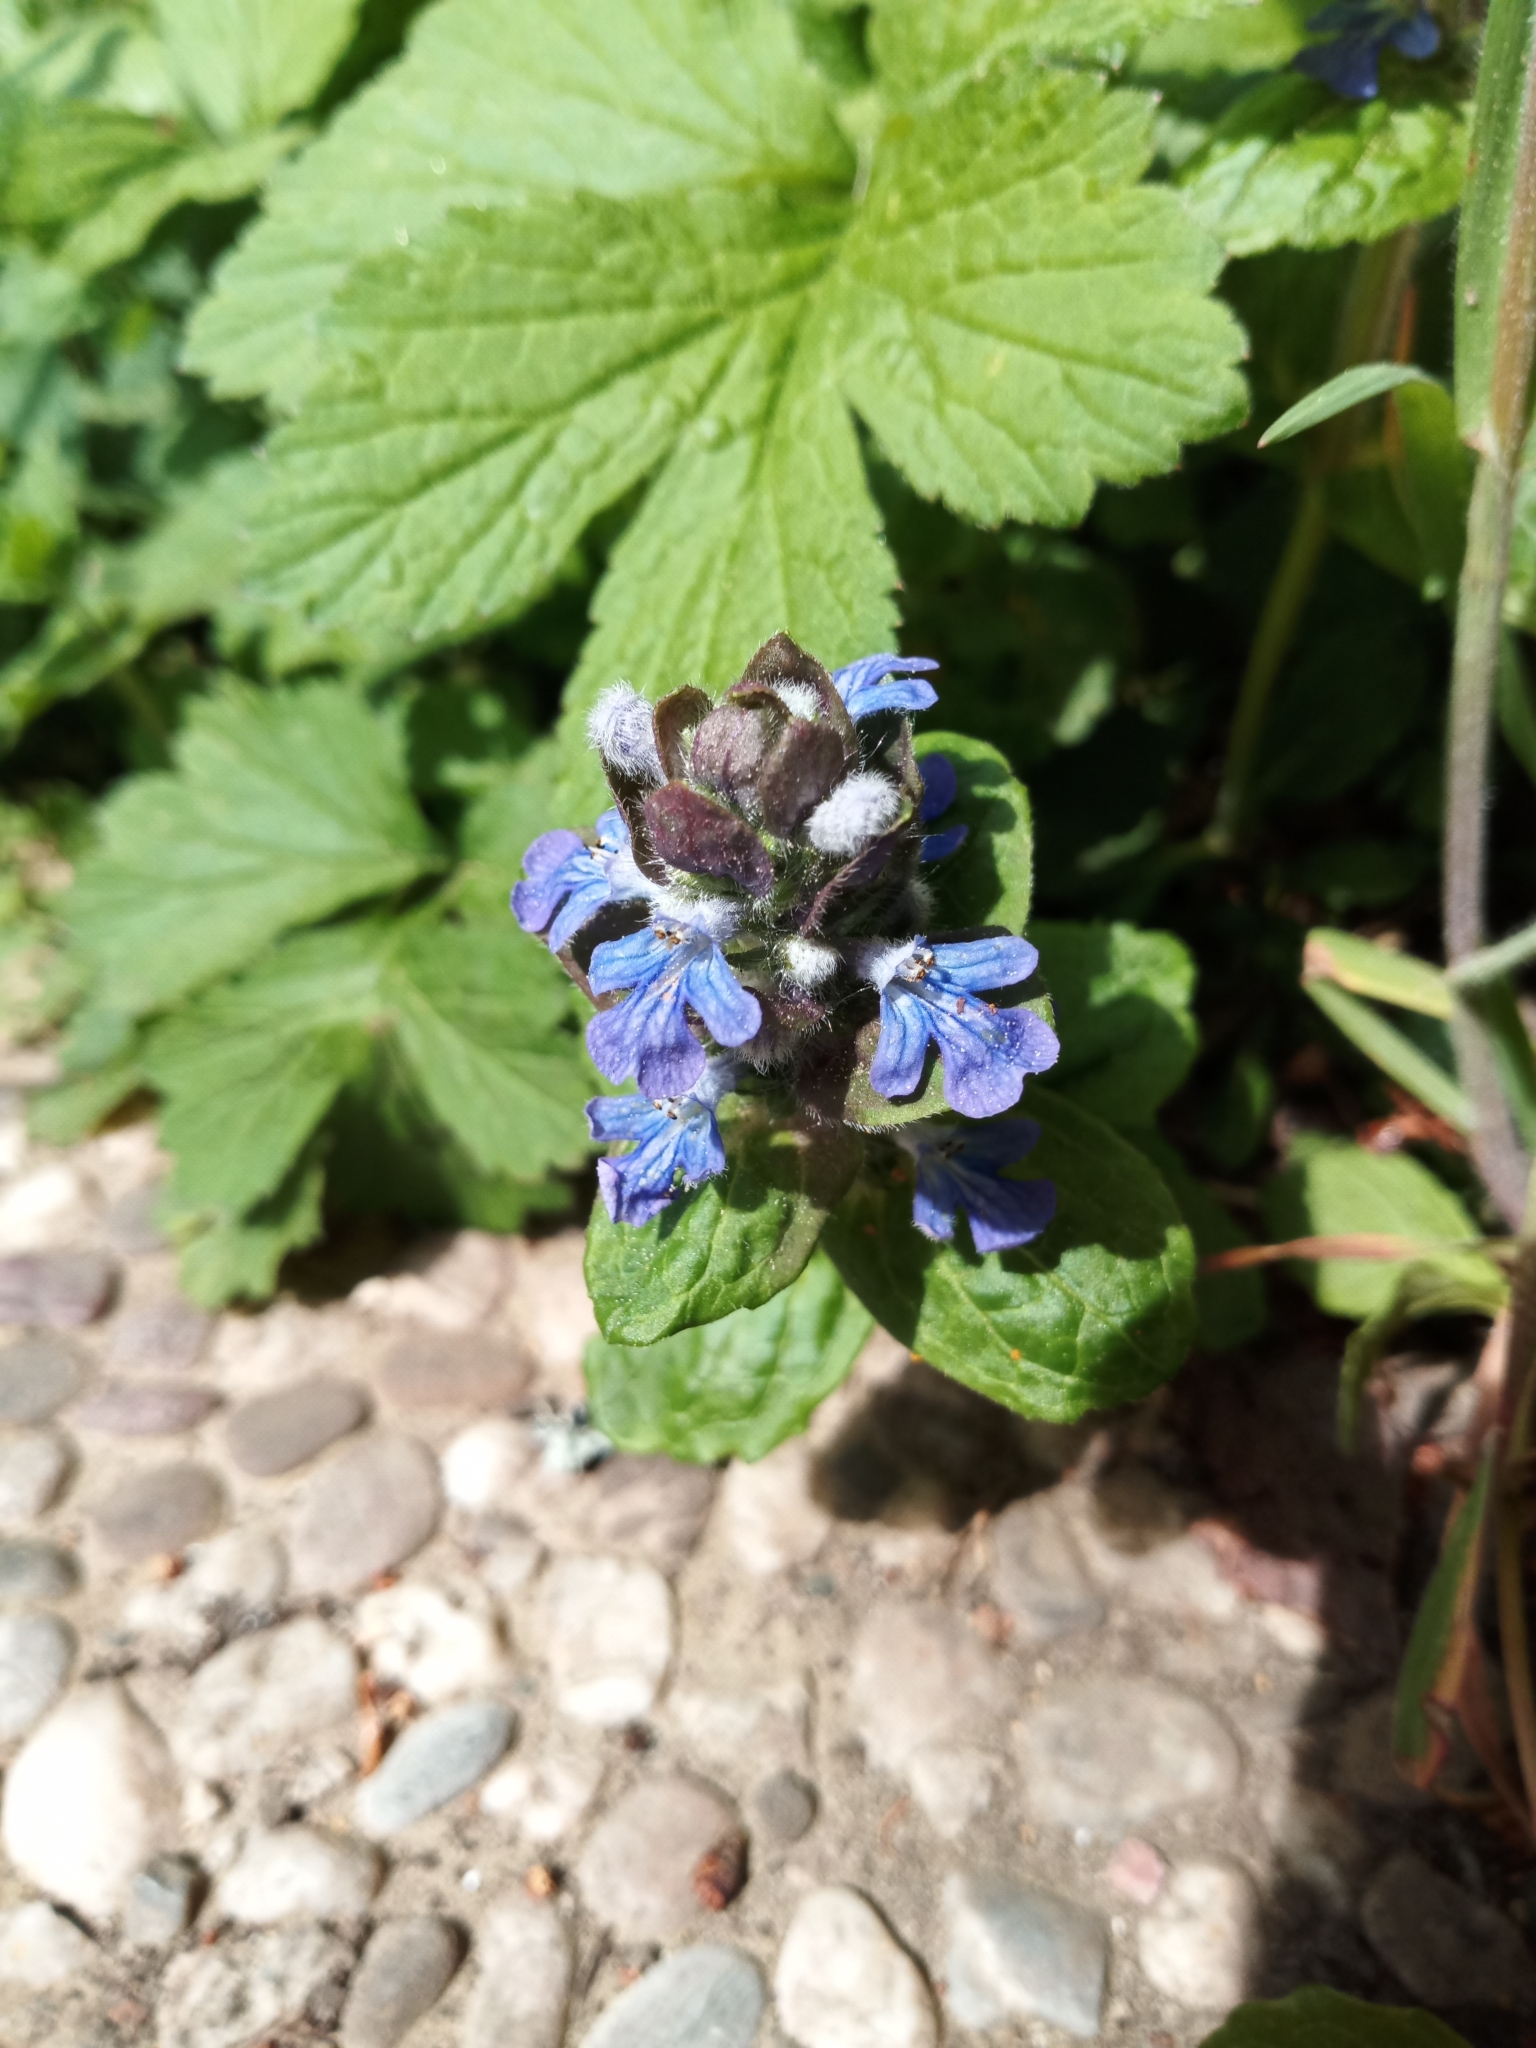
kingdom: Plantae
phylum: Tracheophyta
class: Magnoliopsida
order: Lamiales
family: Lamiaceae
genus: Ajuga
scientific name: Ajuga reptans
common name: Bugle
